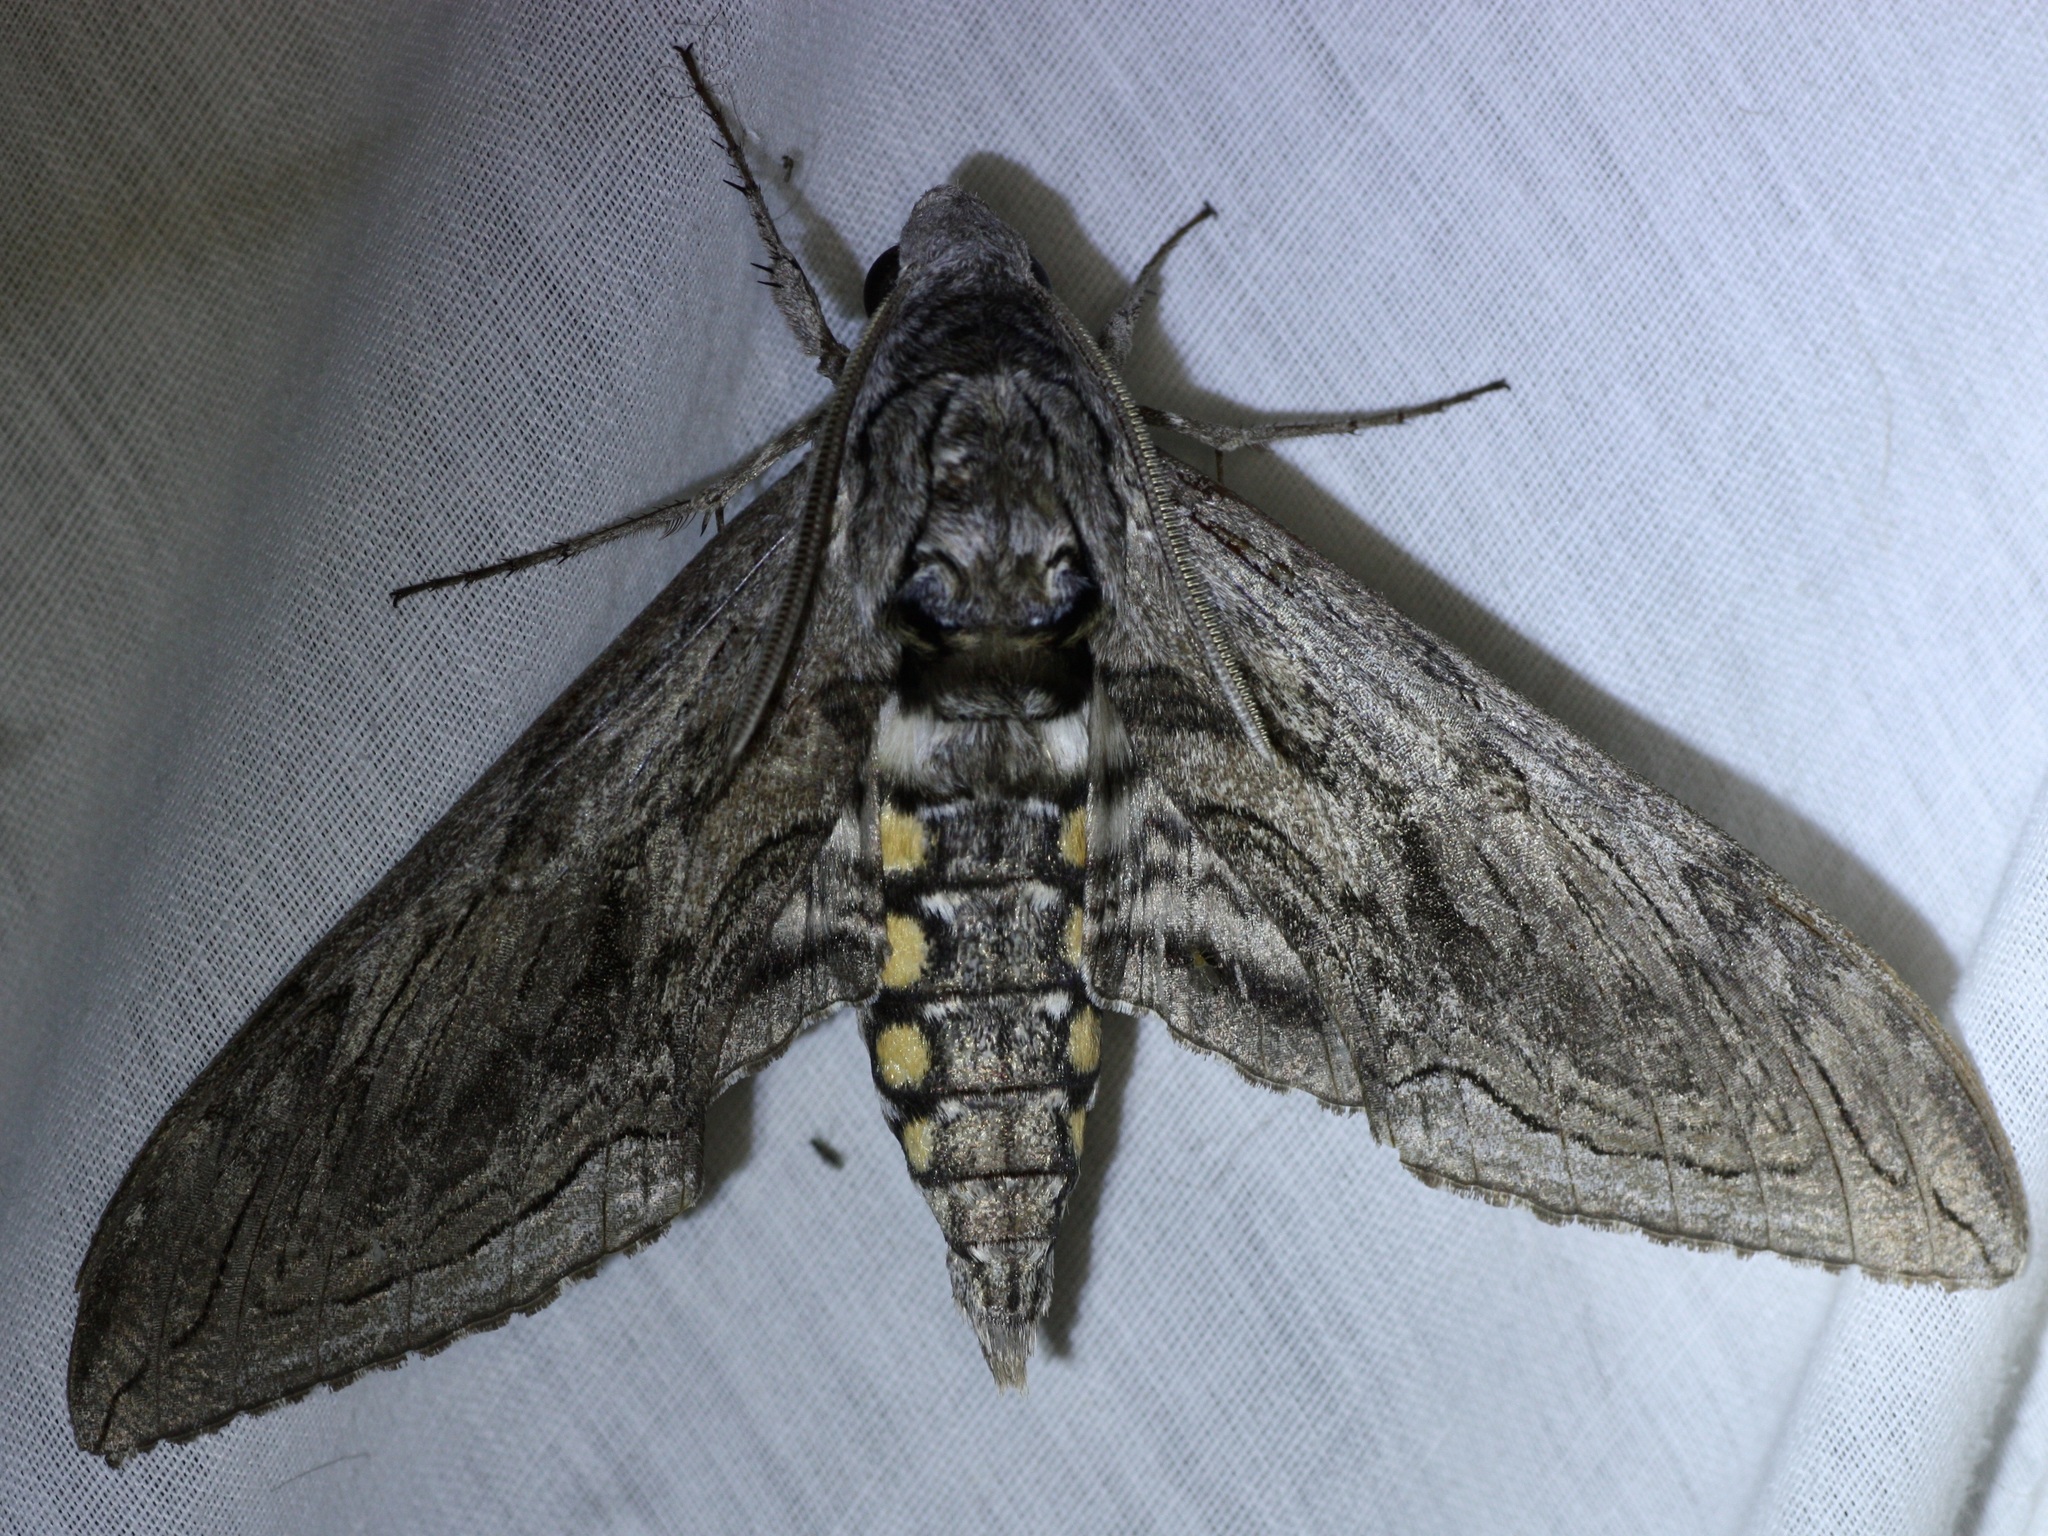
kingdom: Animalia
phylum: Arthropoda
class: Insecta
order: Lepidoptera
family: Sphingidae
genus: Manduca
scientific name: Manduca quinquemaculatus
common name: Five-spotted hawk-moth
